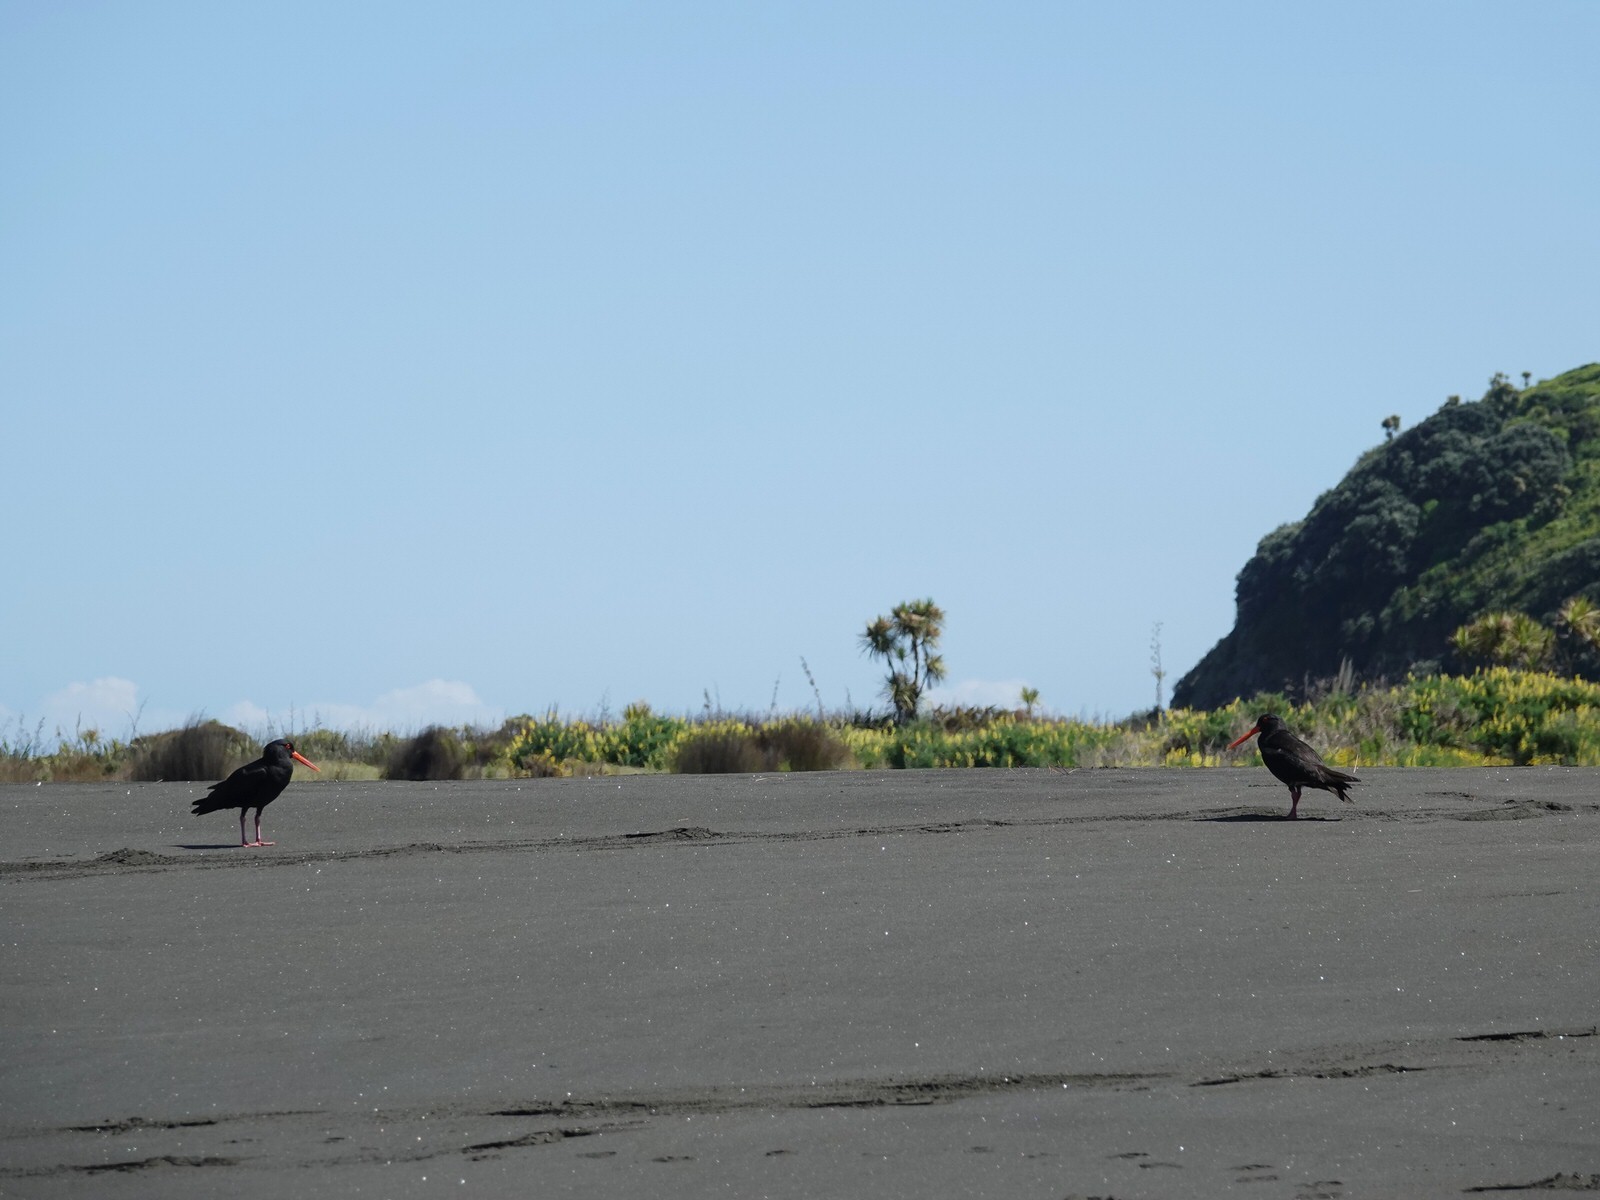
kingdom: Animalia
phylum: Chordata
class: Aves
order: Charadriiformes
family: Haematopodidae
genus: Haematopus
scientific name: Haematopus unicolor
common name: Variable oystercatcher
